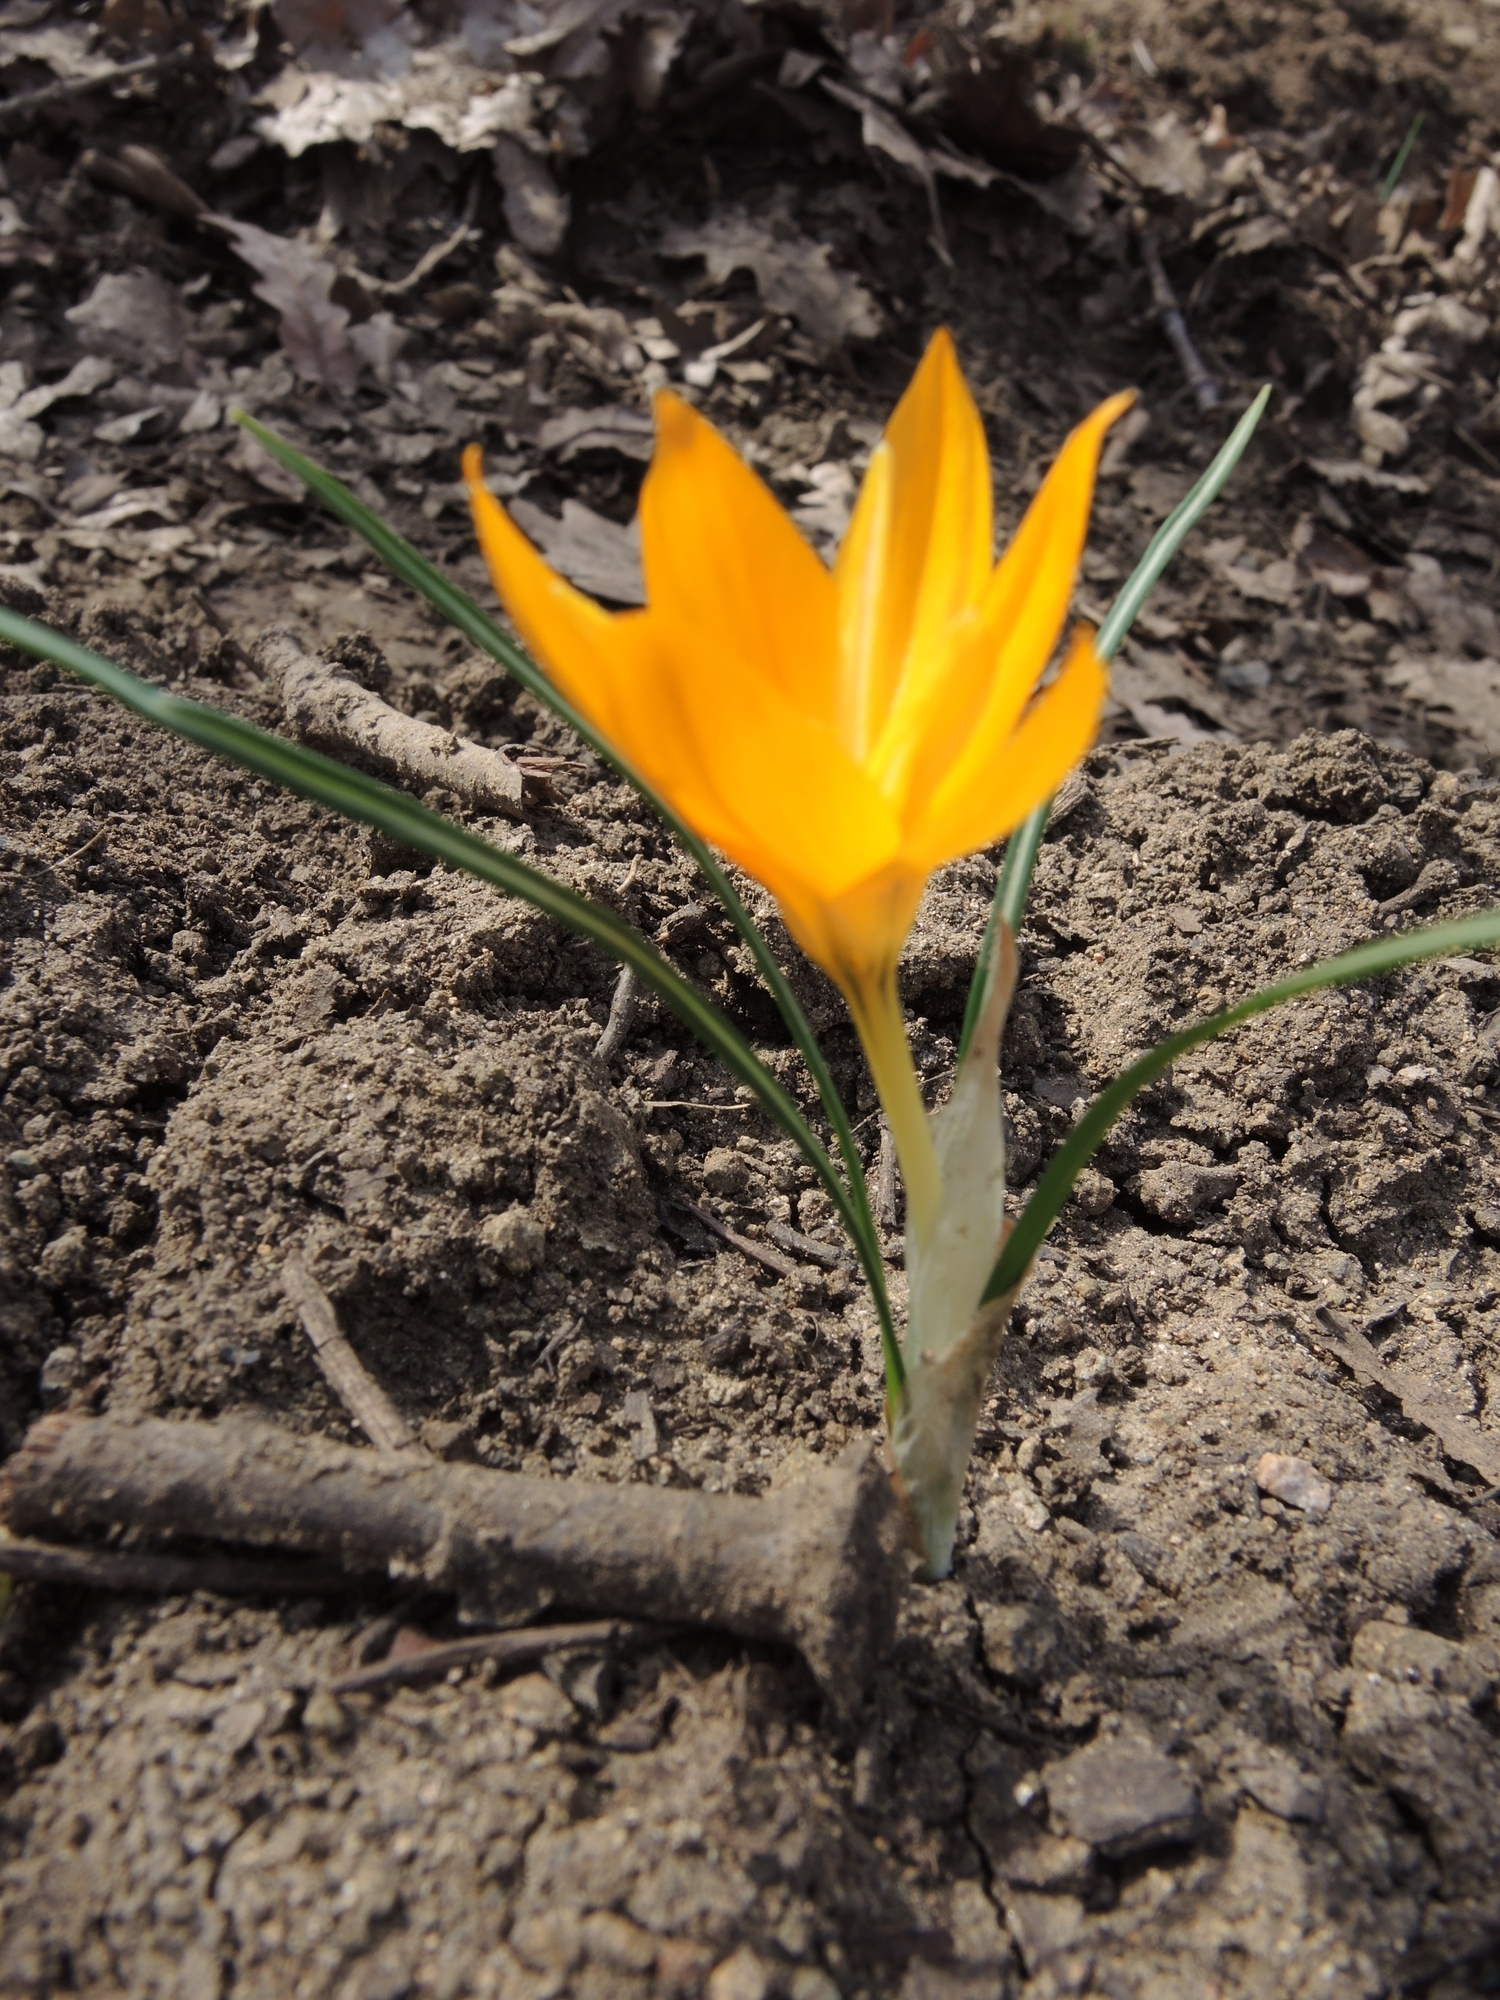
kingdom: Plantae
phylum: Tracheophyta
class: Liliopsida
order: Asparagales
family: Iridaceae
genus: Crocus
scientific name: Crocus flavus
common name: Yellow crocus
